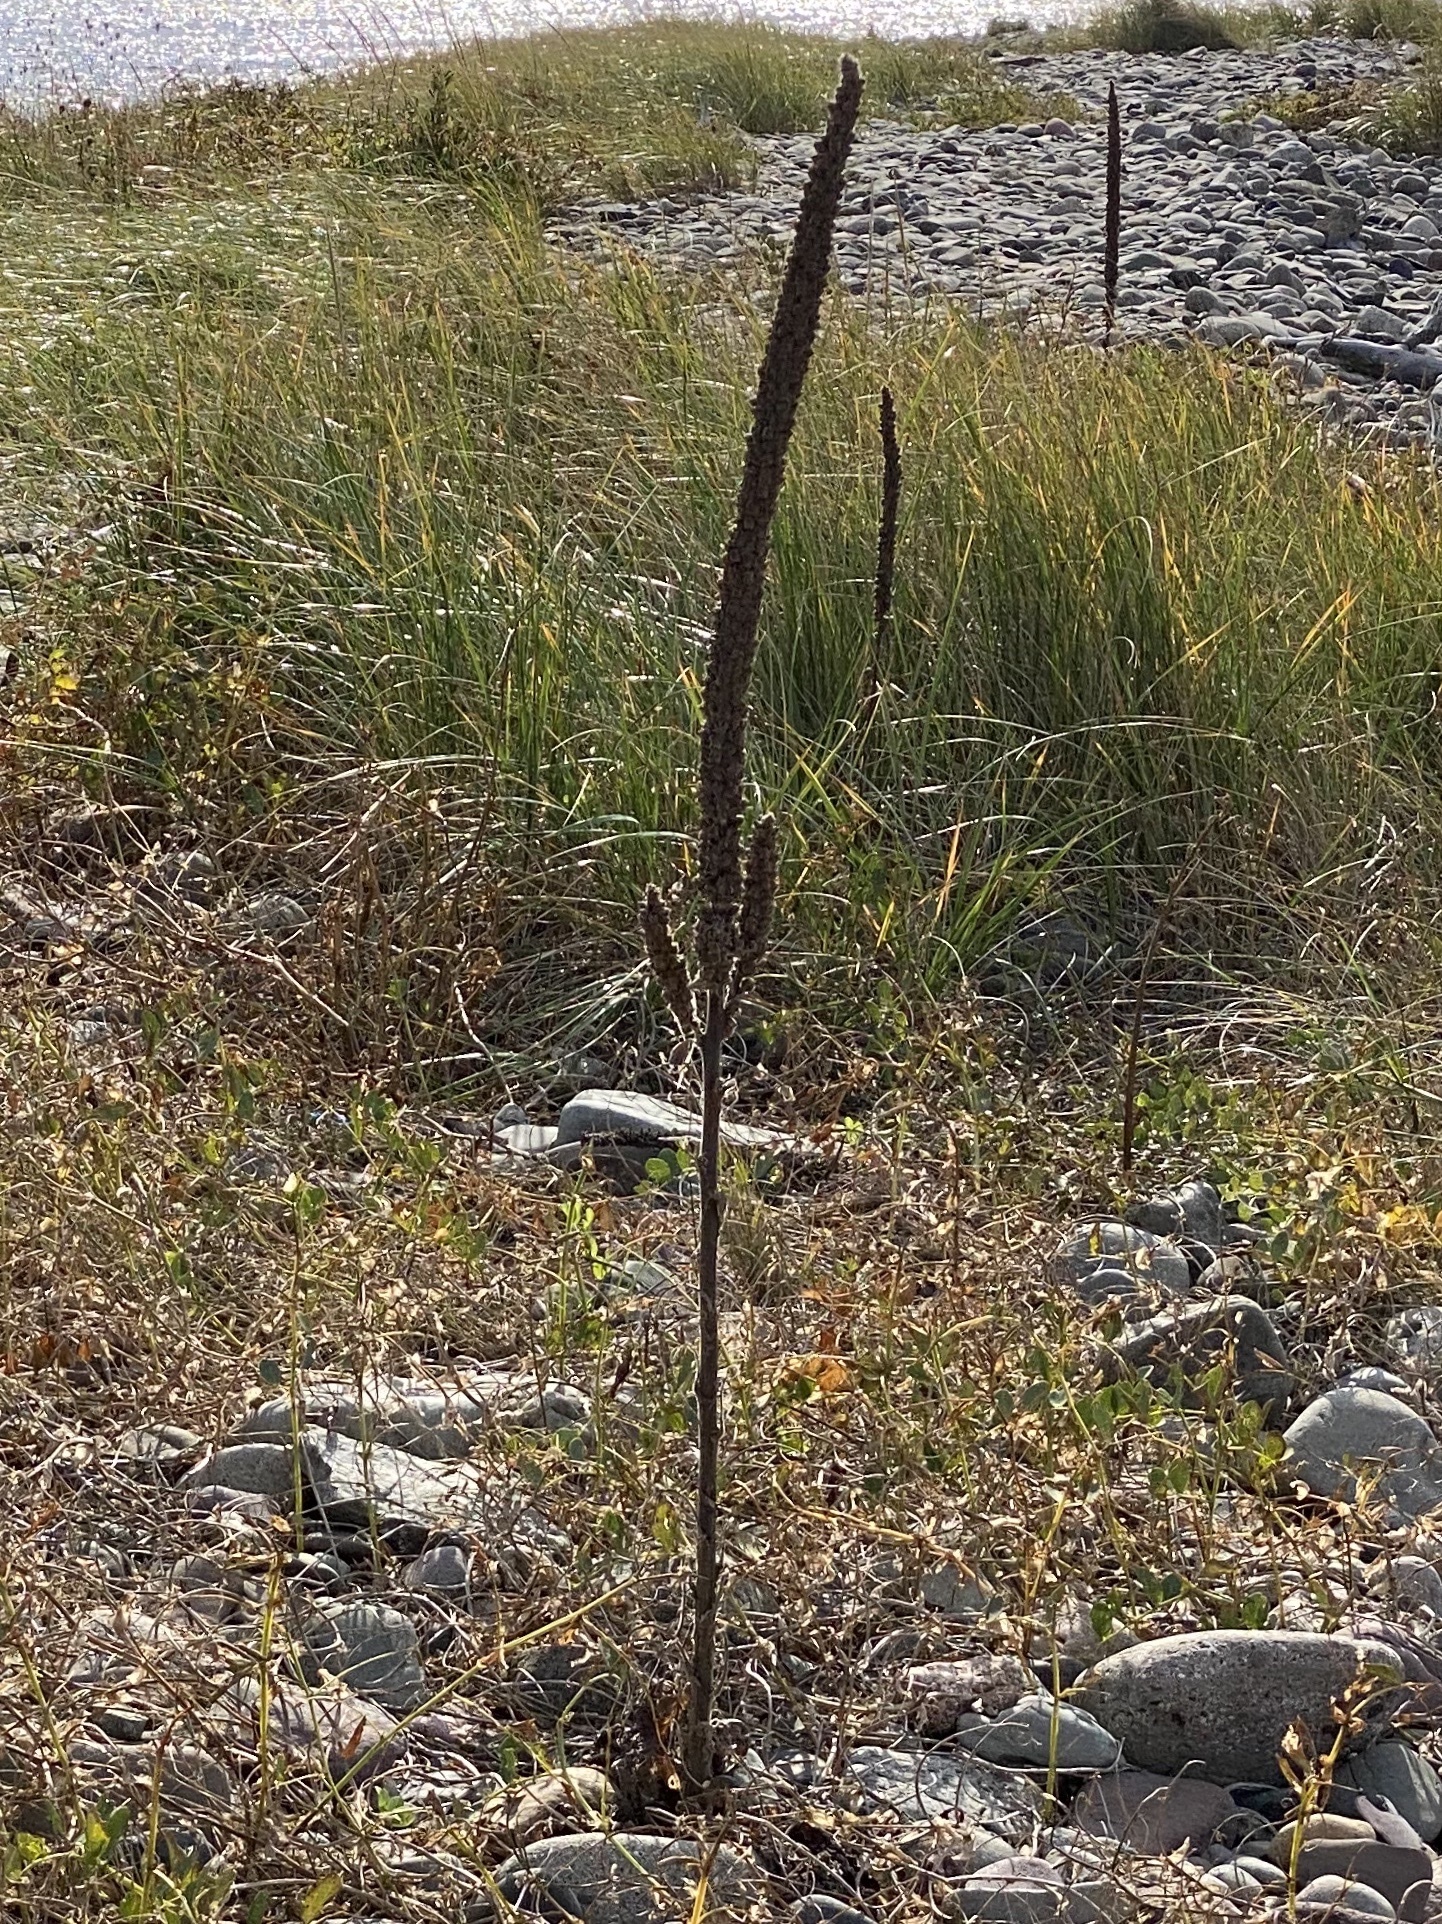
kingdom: Plantae
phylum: Tracheophyta
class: Magnoliopsida
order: Lamiales
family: Scrophulariaceae
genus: Verbascum
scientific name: Verbascum thapsus
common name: Common mullein
